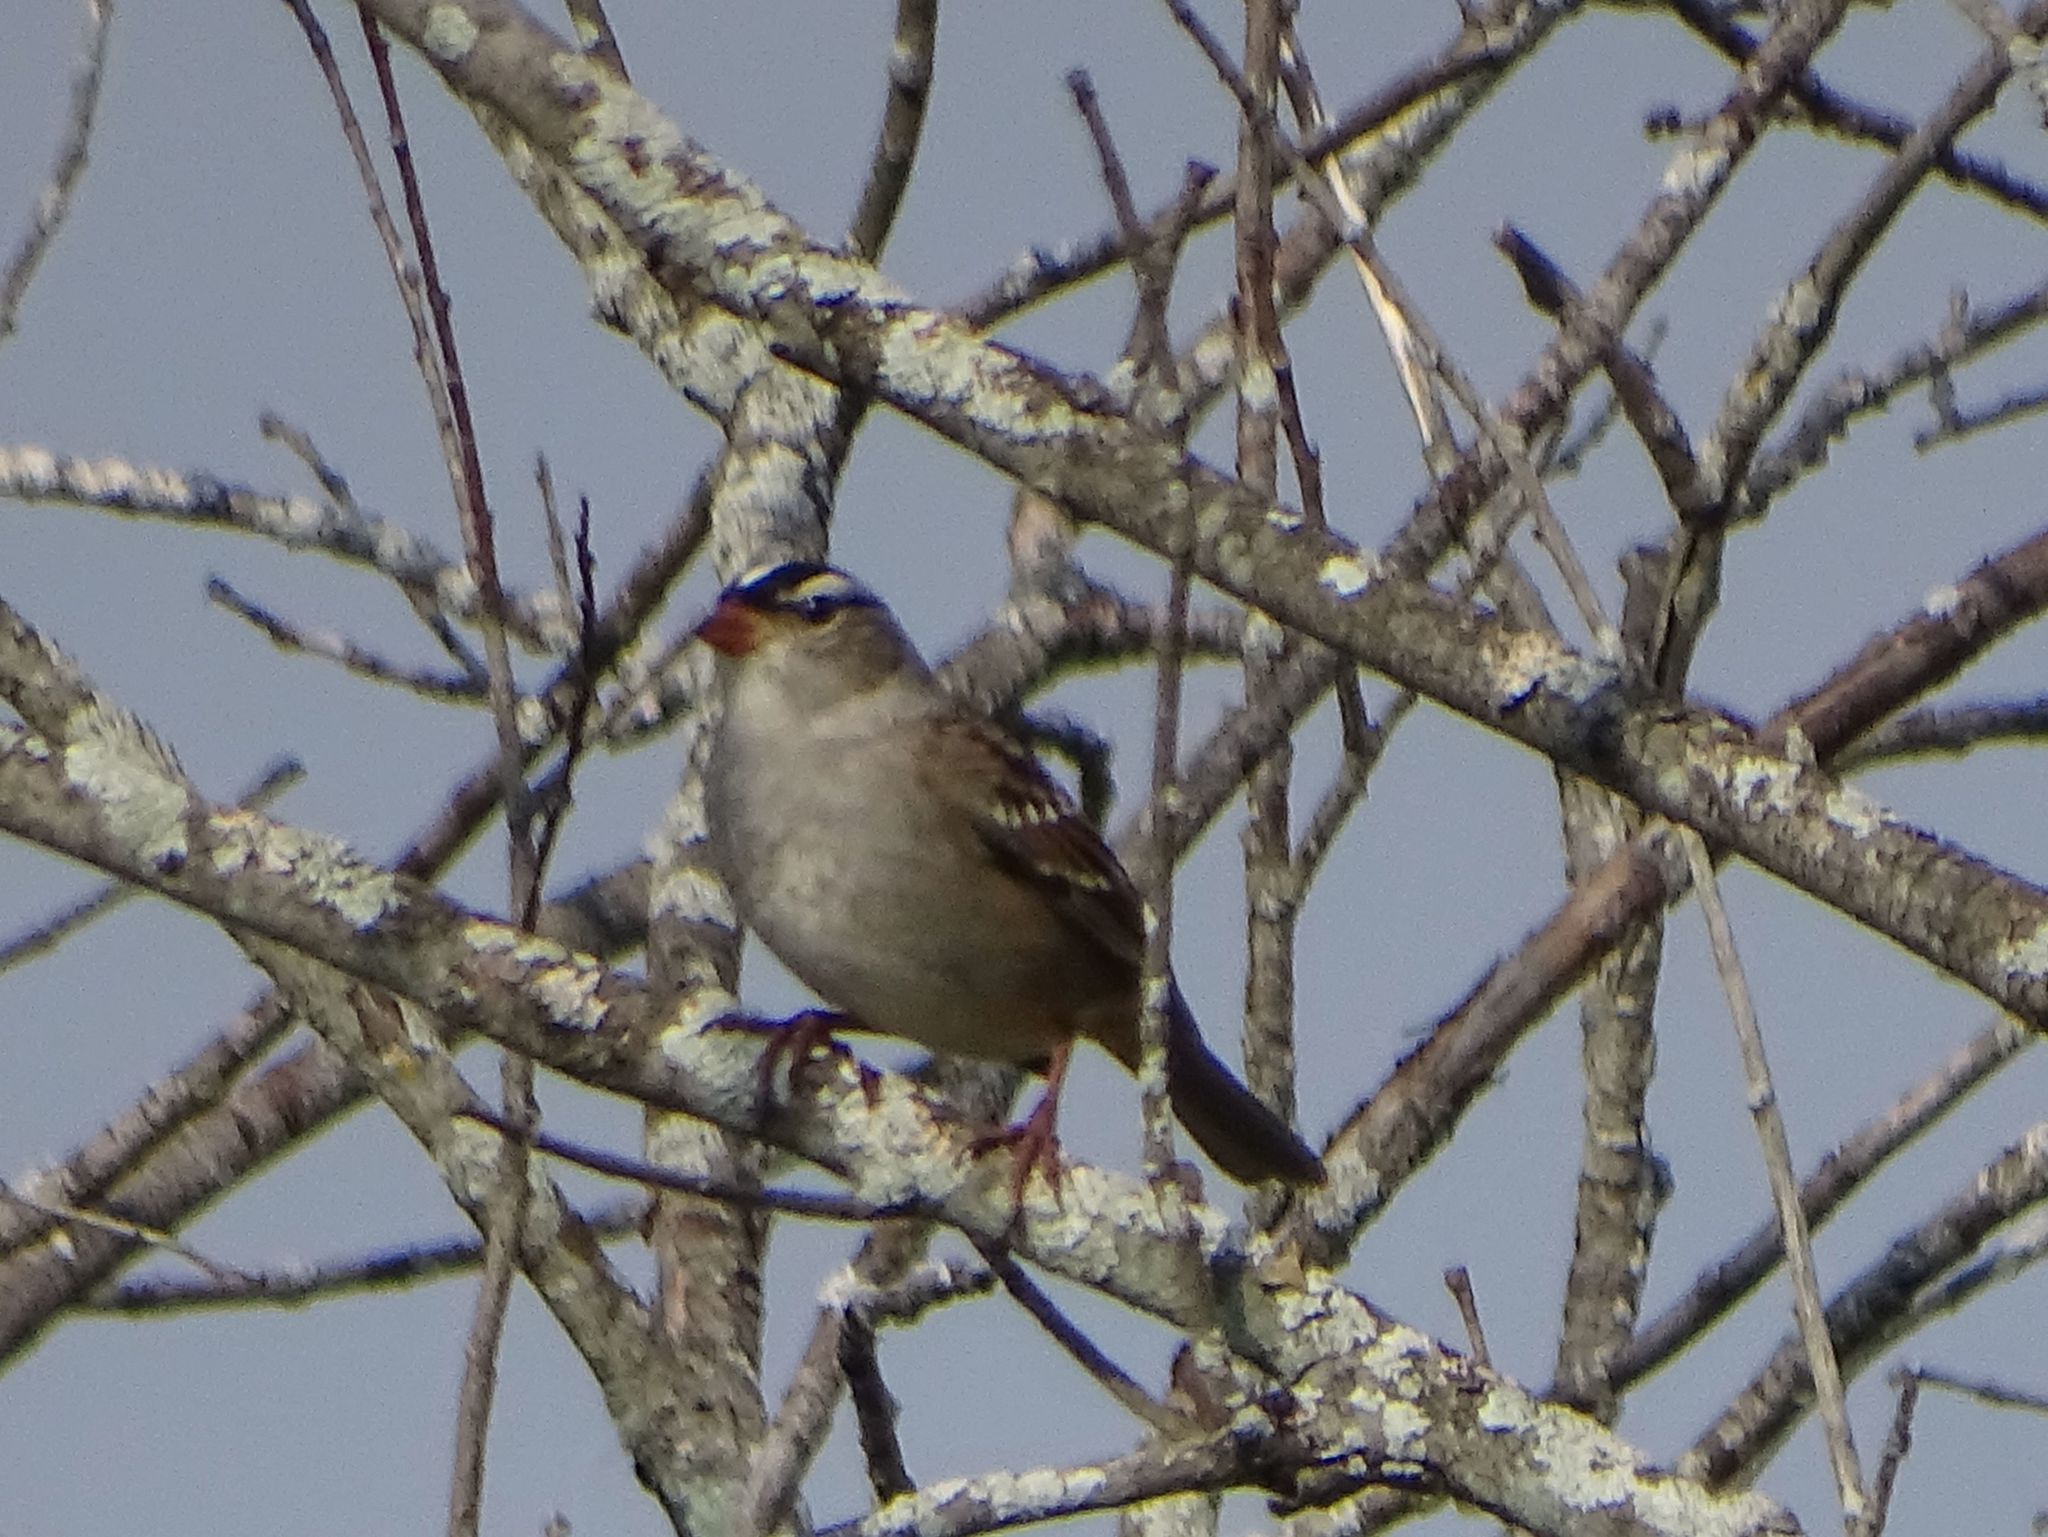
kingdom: Animalia
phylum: Chordata
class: Aves
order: Passeriformes
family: Passerellidae
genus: Zonotrichia
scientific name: Zonotrichia leucophrys
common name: White-crowned sparrow
